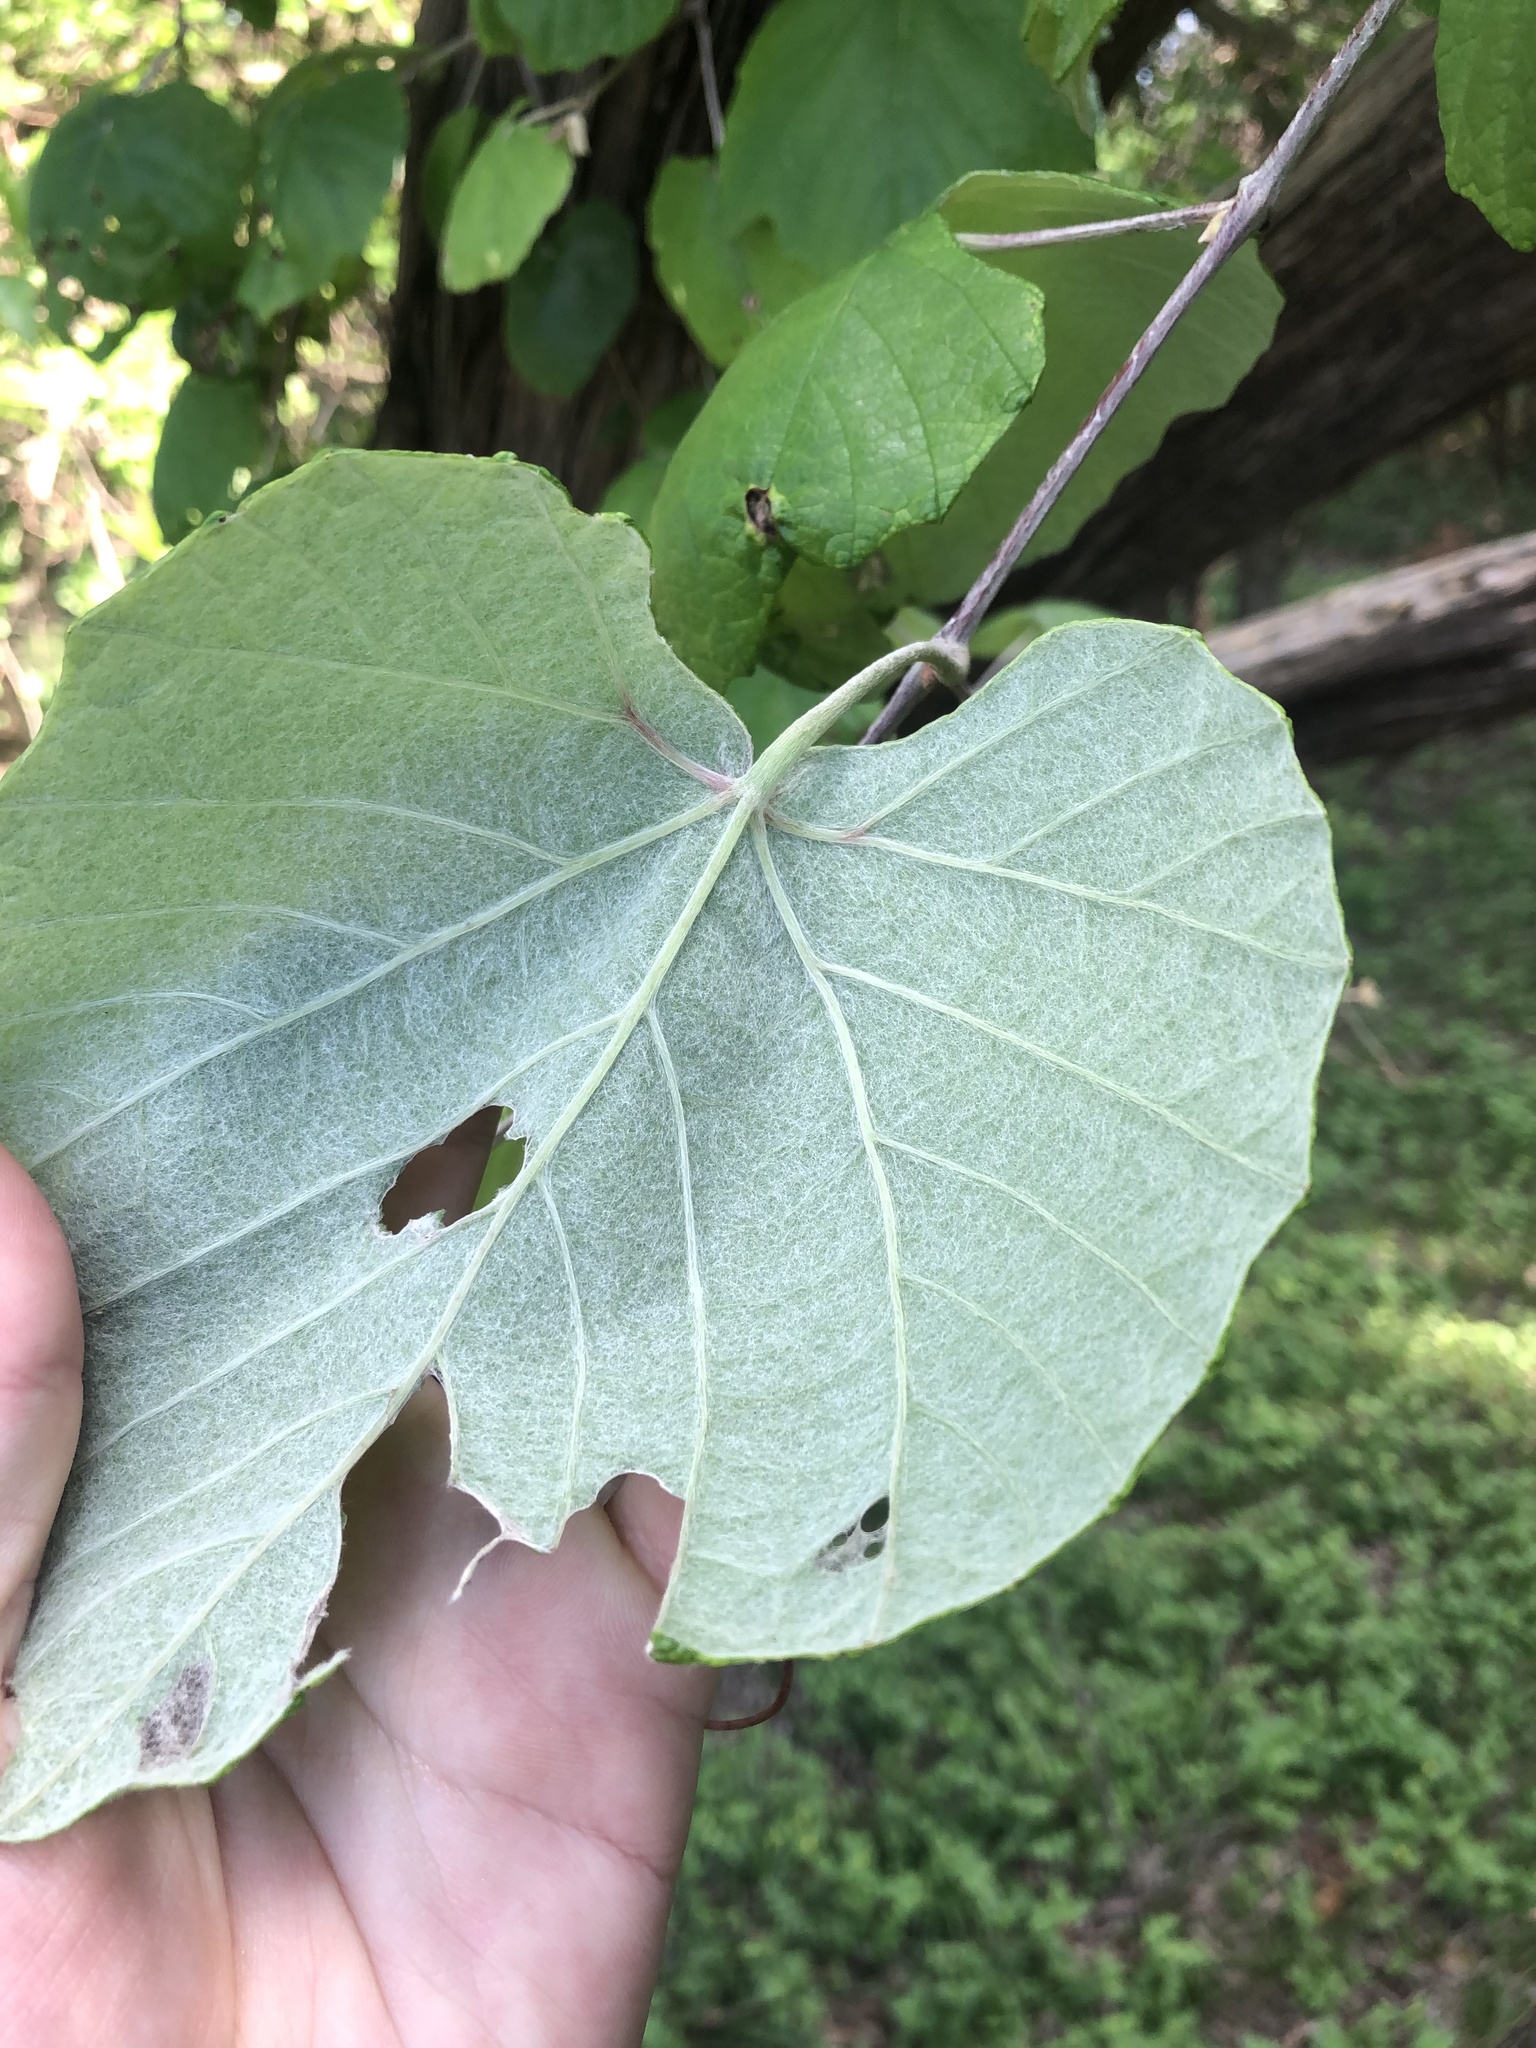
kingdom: Plantae
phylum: Tracheophyta
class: Magnoliopsida
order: Vitales
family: Vitaceae
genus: Vitis
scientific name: Vitis mustangensis
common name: Mustang grape
